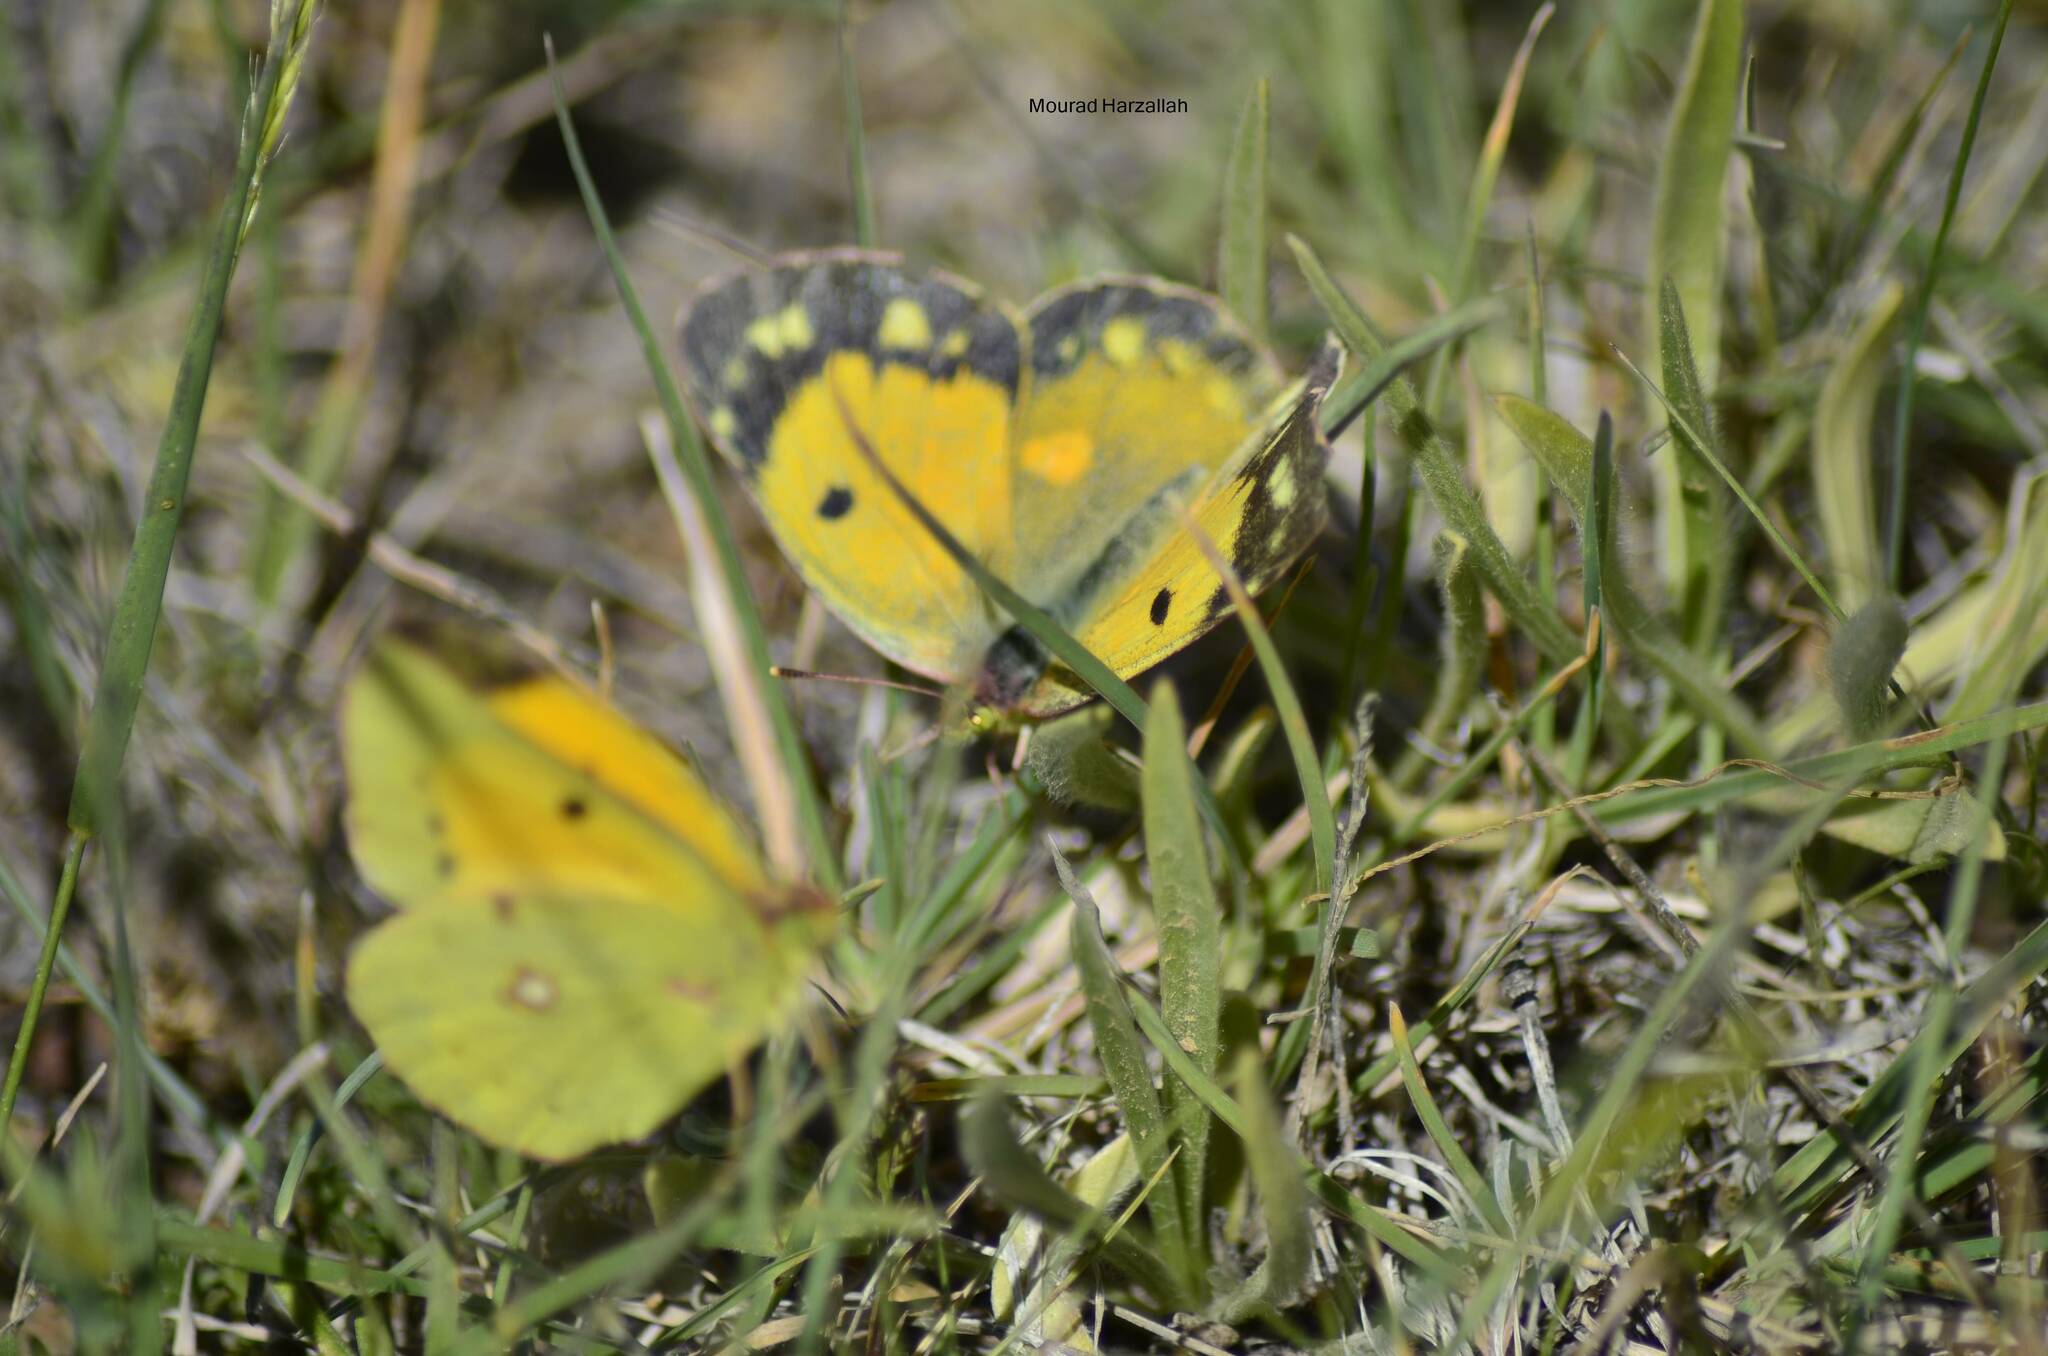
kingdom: Animalia
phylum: Arthropoda
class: Insecta
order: Lepidoptera
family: Pieridae
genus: Colias
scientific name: Colias croceus
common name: Clouded yellow
